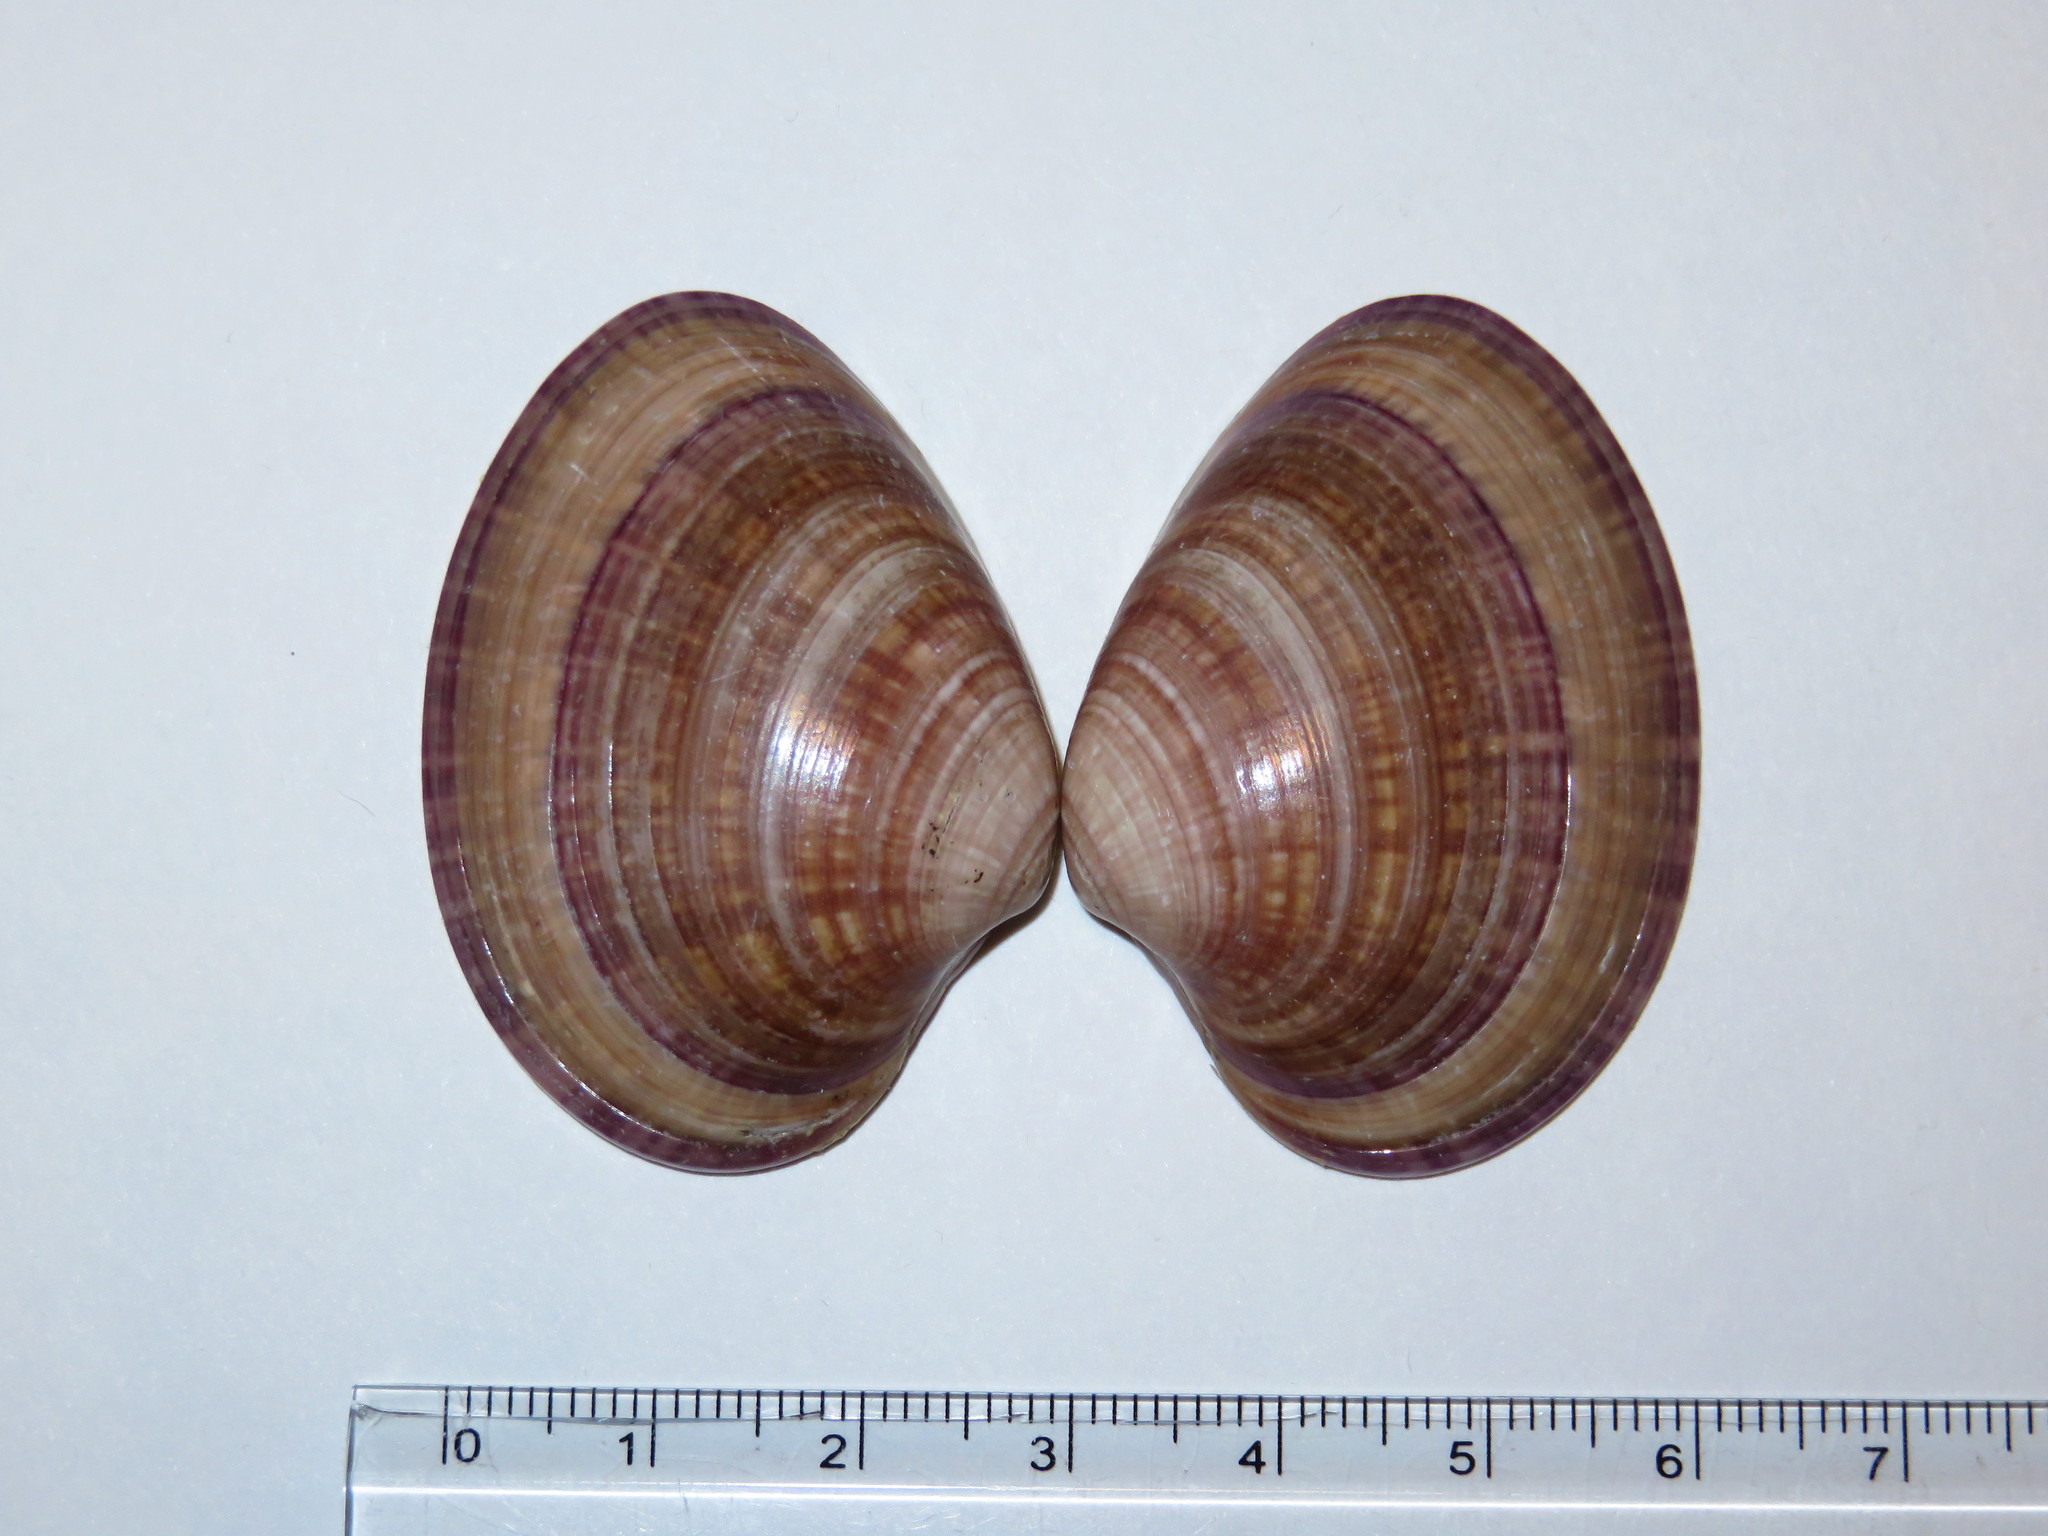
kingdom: Animalia
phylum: Mollusca
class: Bivalvia
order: Venerida
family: Veneridae
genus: Callista
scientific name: Callista chinensis
